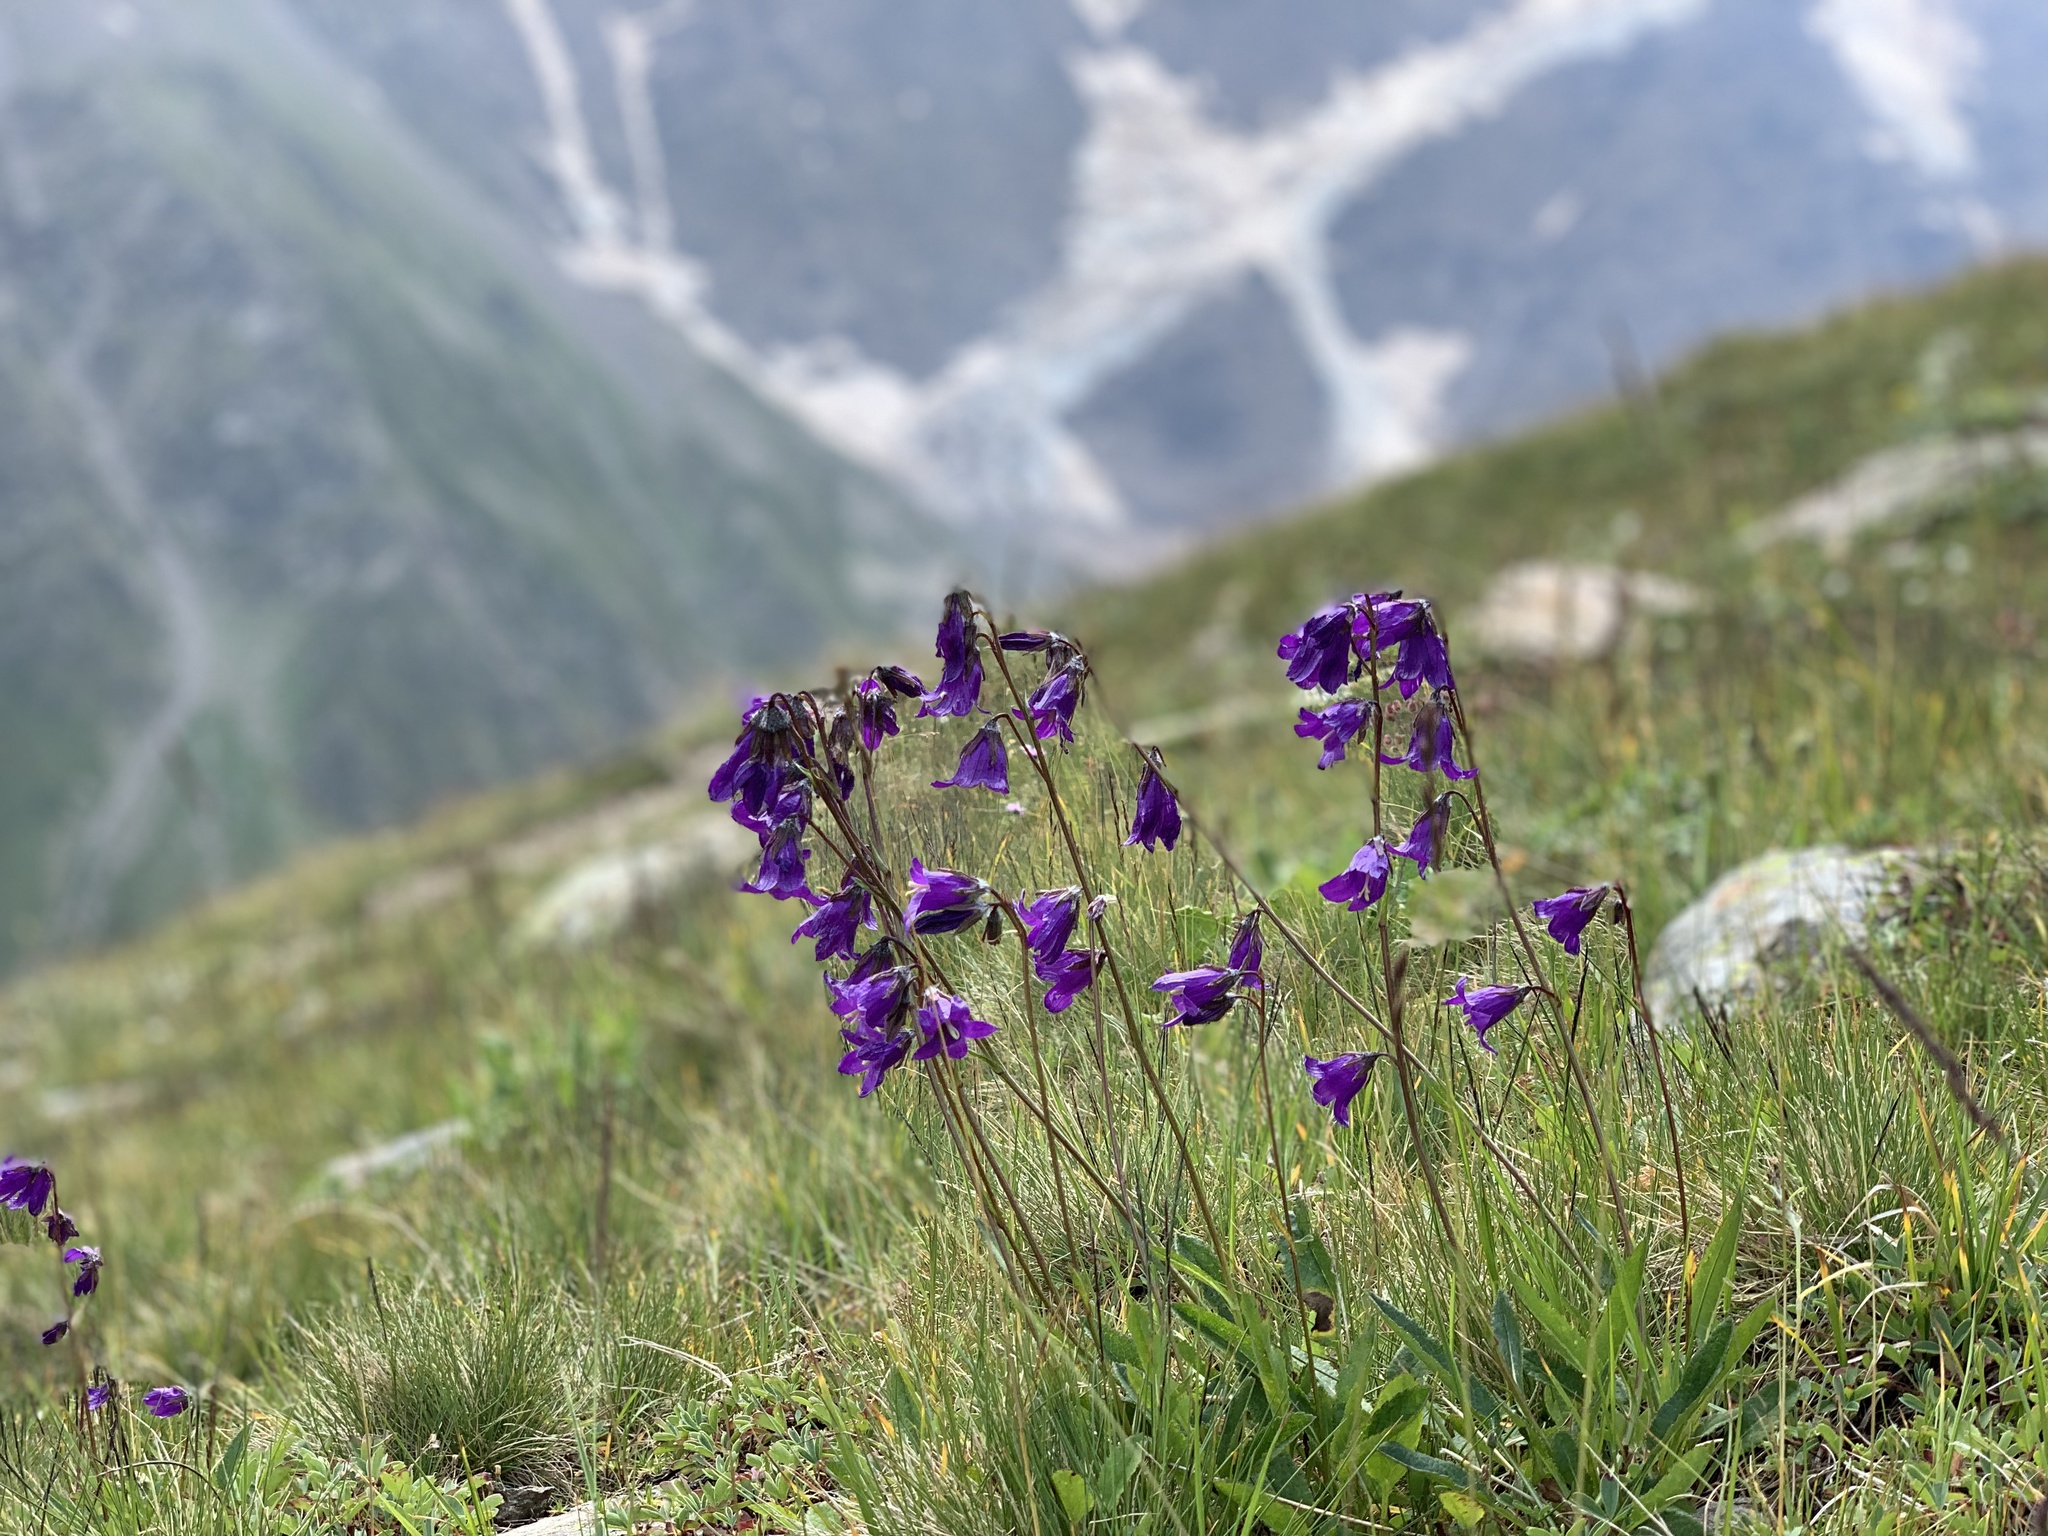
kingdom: Plantae
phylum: Tracheophyta
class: Magnoliopsida
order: Asterales
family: Campanulaceae
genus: Campanula
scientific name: Campanula collina
